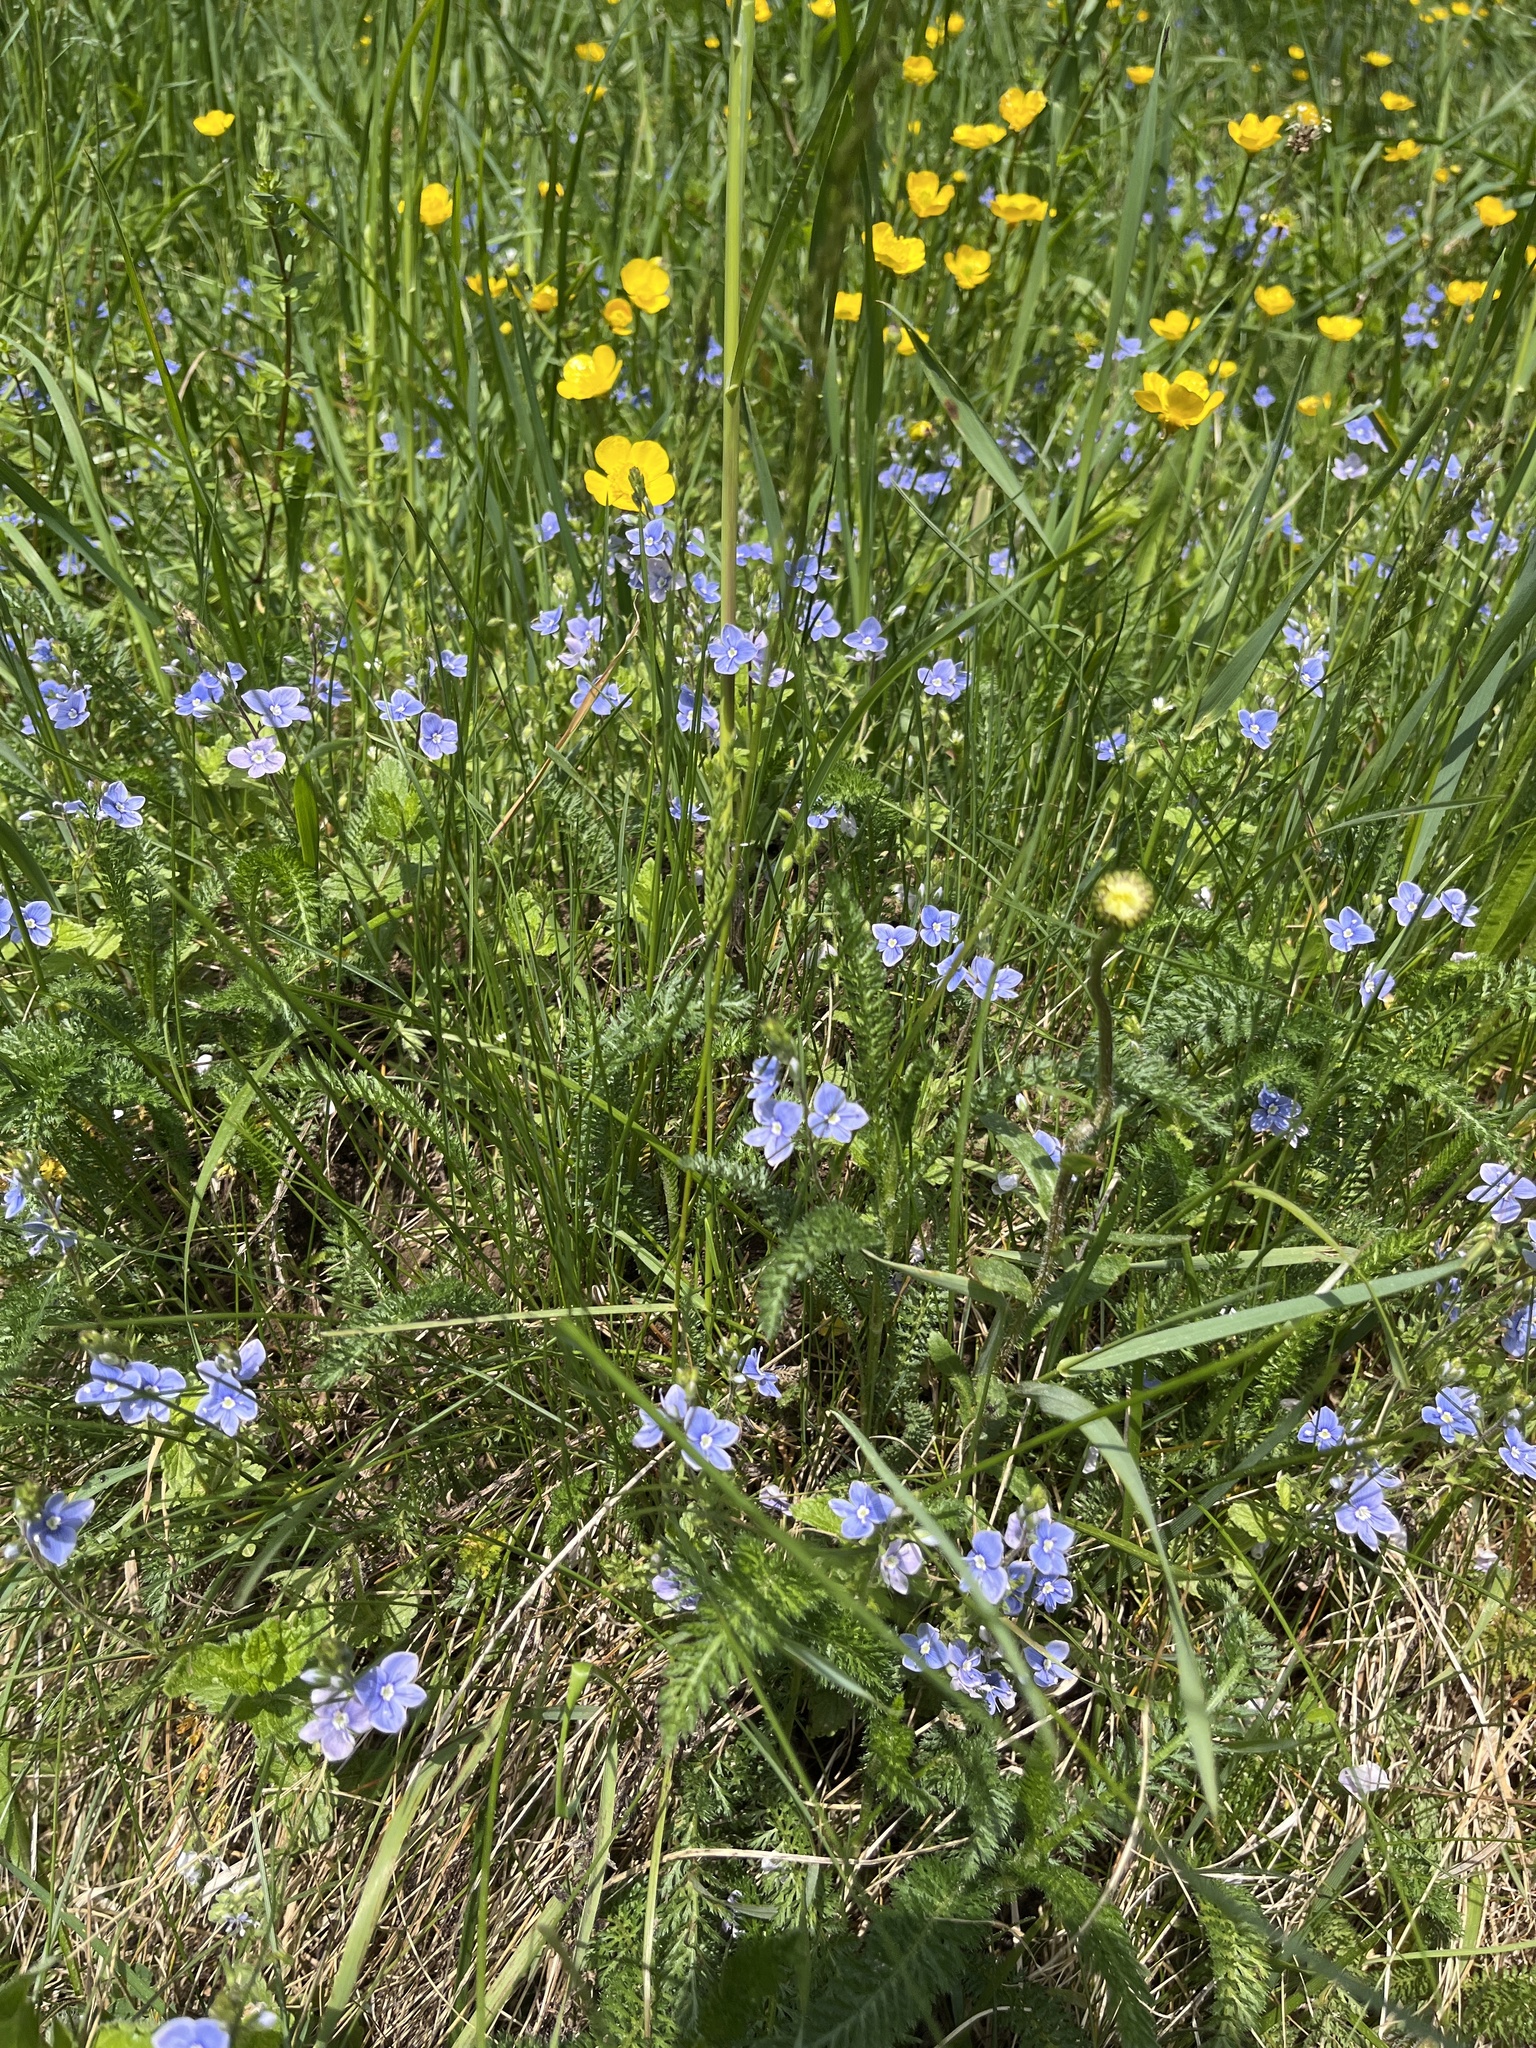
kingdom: Plantae
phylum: Tracheophyta
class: Magnoliopsida
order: Lamiales
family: Plantaginaceae
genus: Veronica
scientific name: Veronica chamaedrys
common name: Germander speedwell
